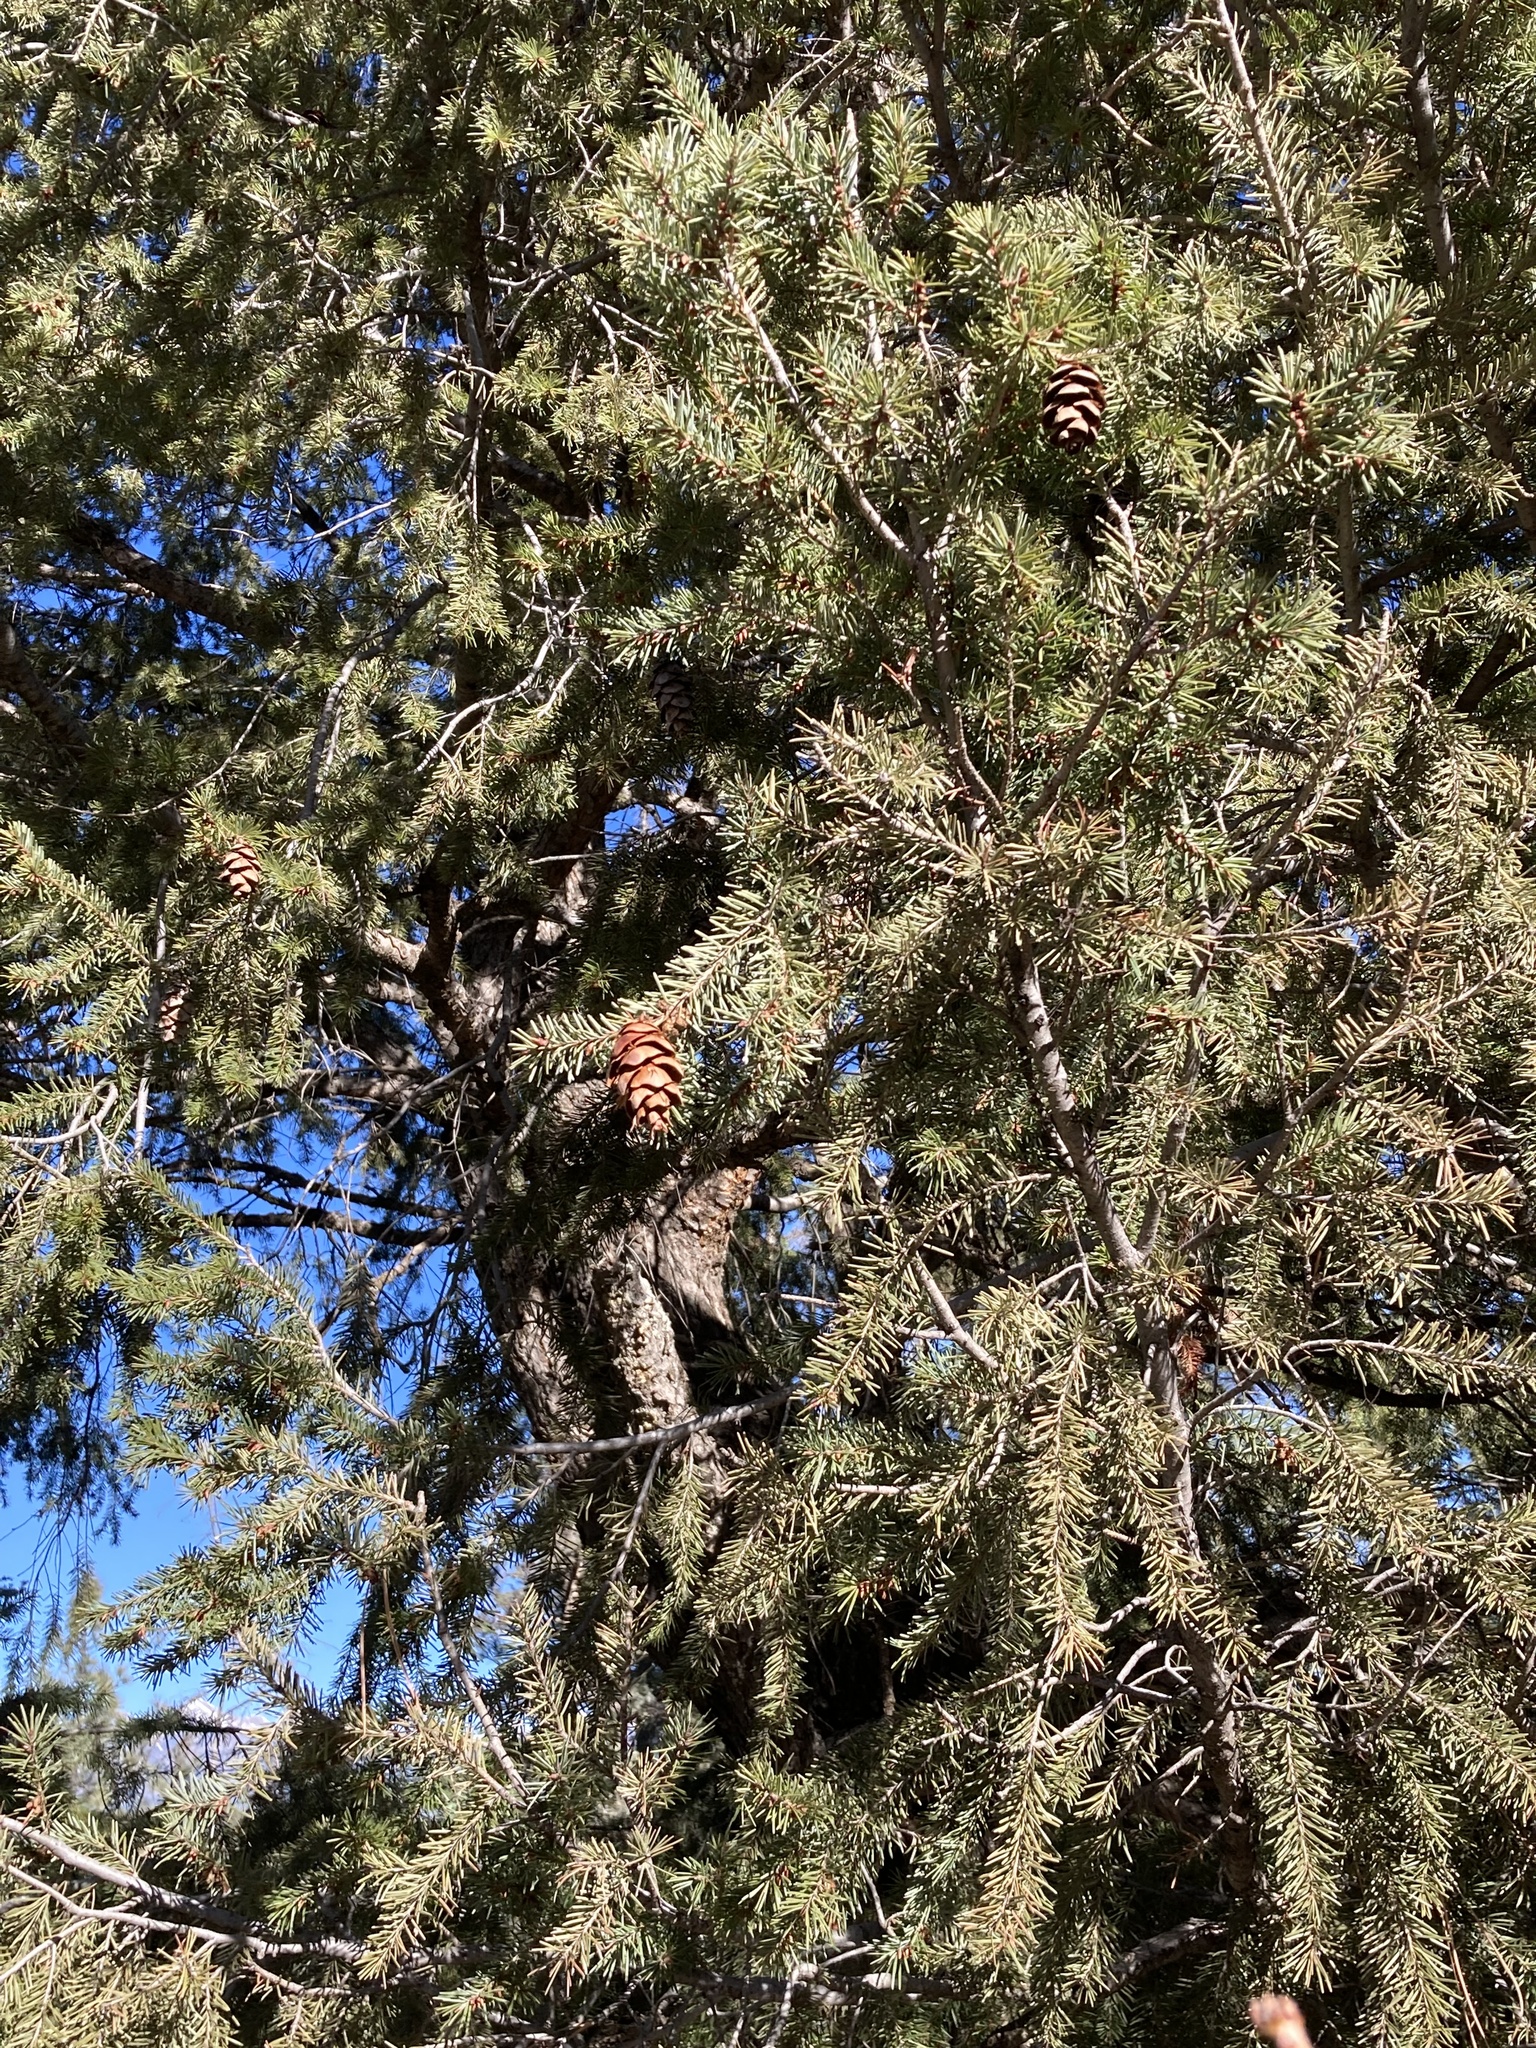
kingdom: Plantae
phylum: Tracheophyta
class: Pinopsida
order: Pinales
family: Pinaceae
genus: Pseudotsuga
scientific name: Pseudotsuga menziesii
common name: Douglas fir
